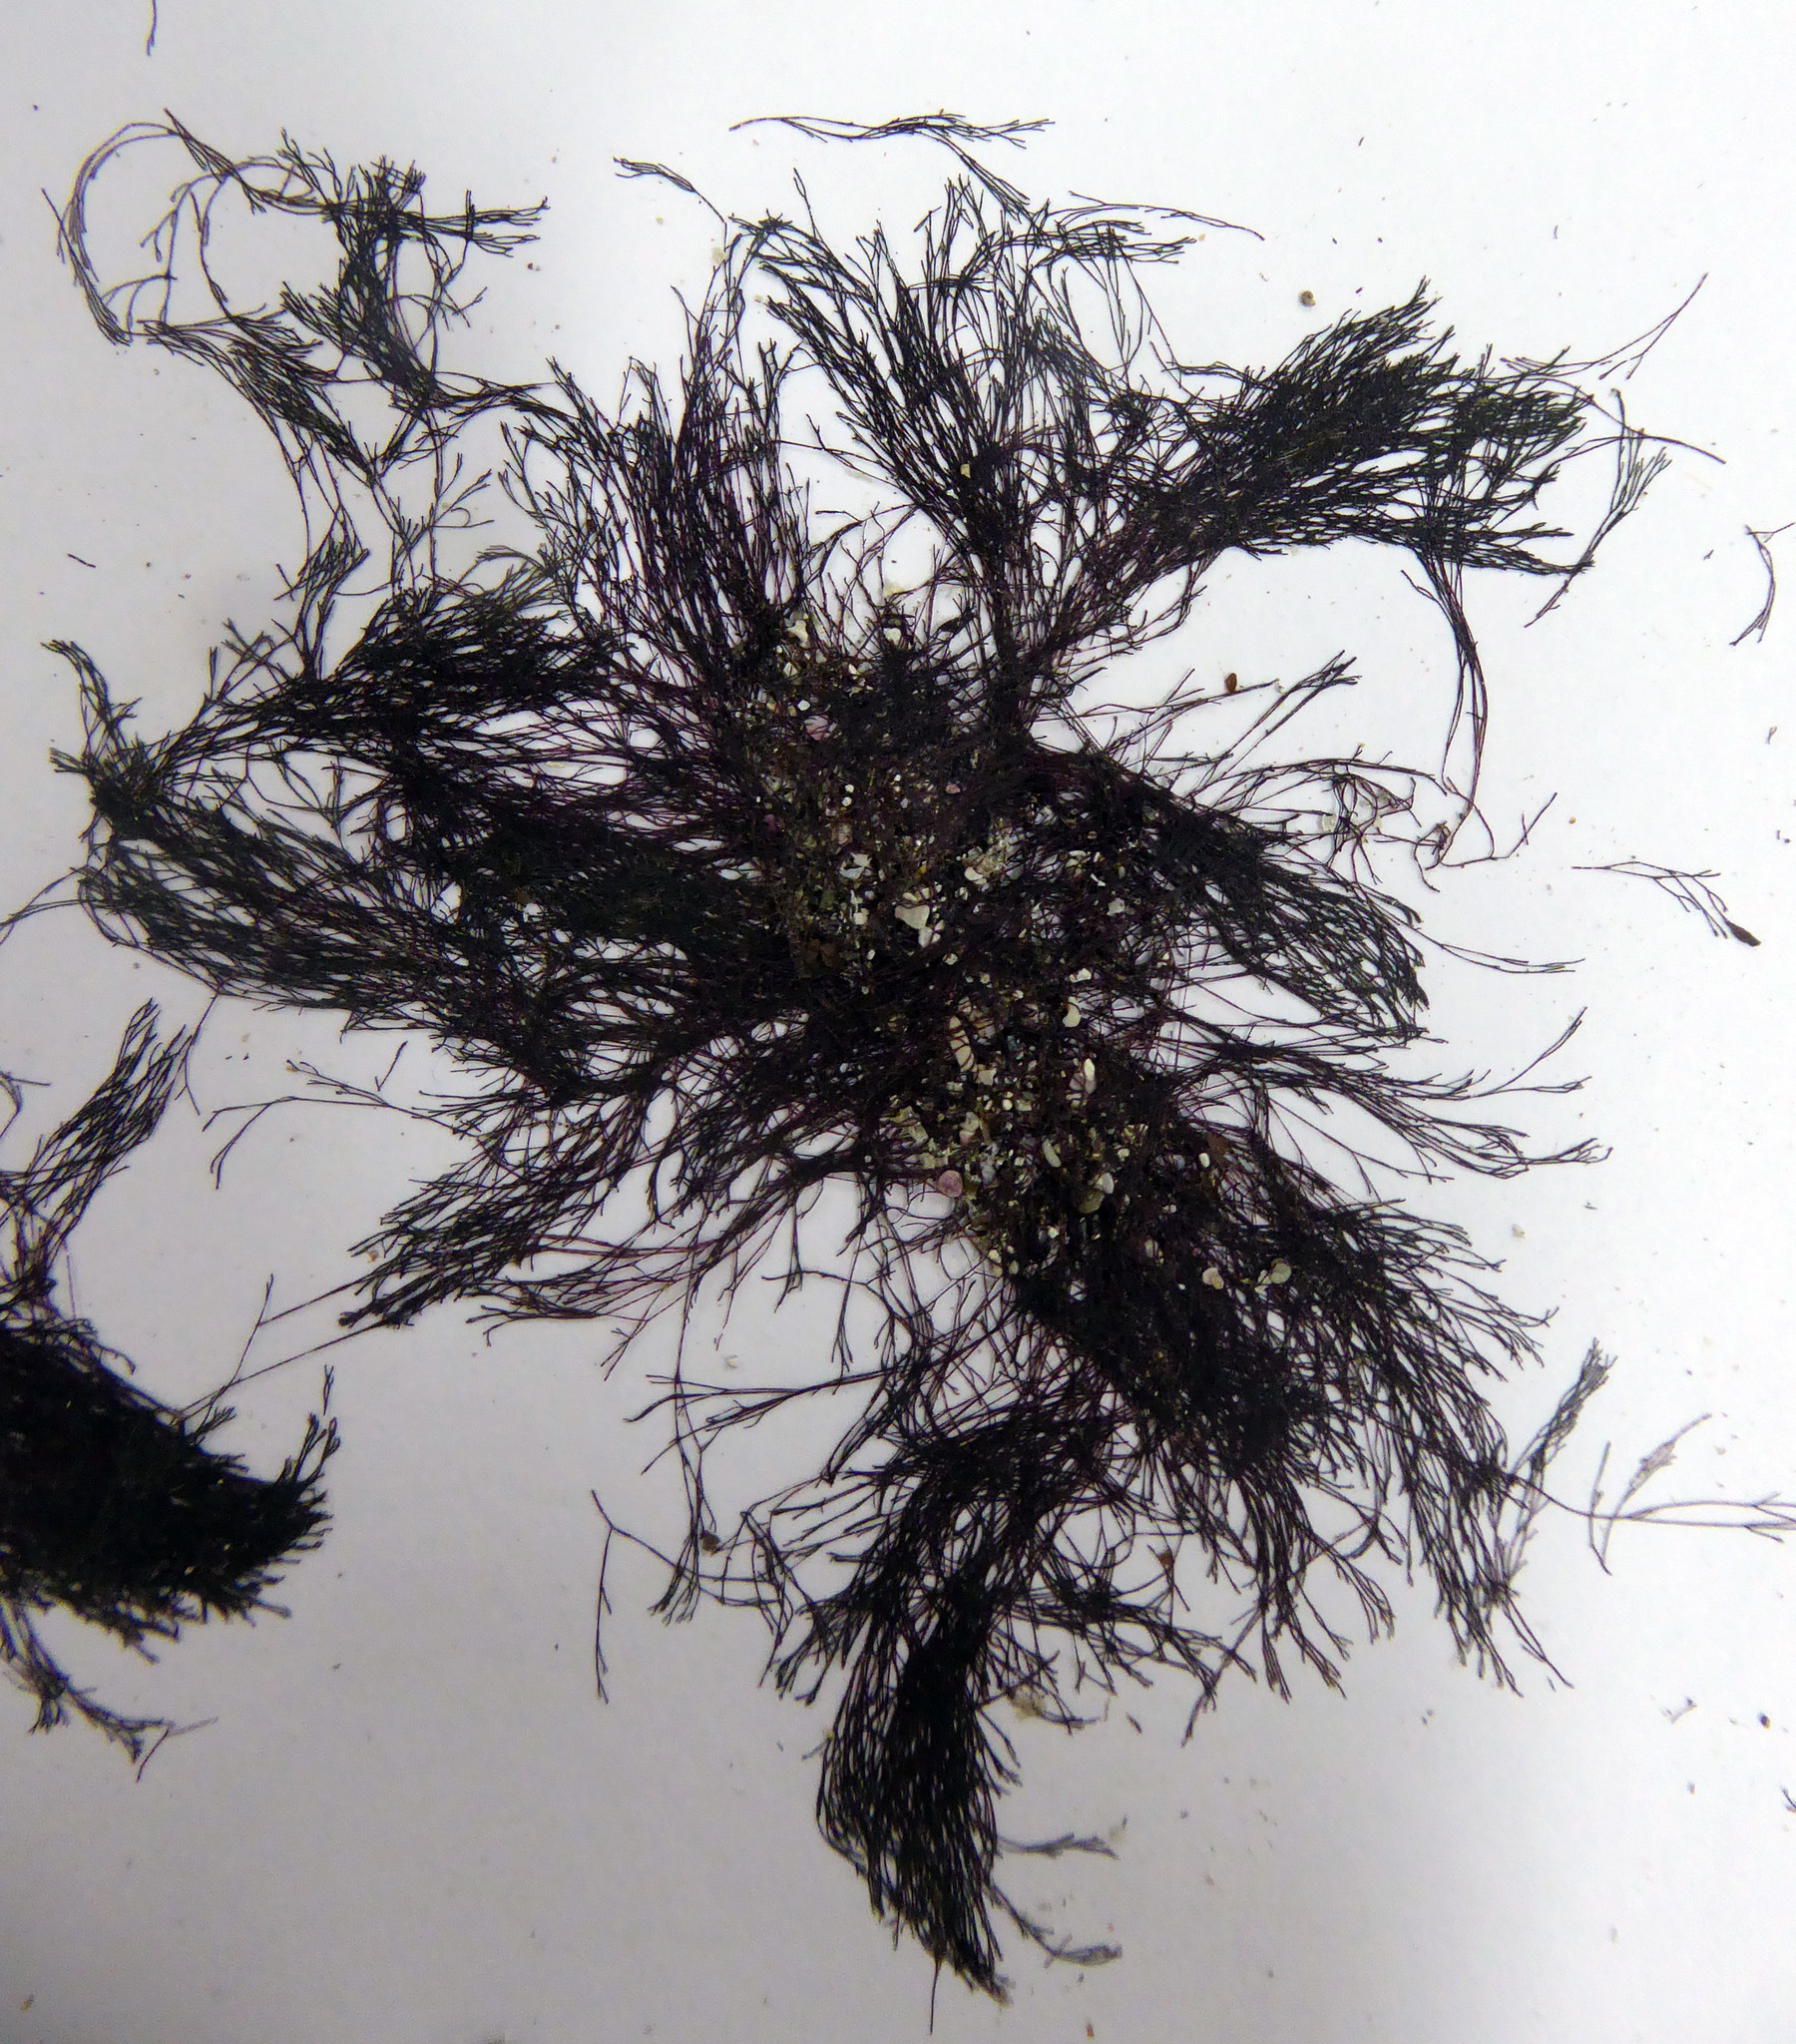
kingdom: Plantae
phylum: Rhodophyta
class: Florideophyceae
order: Ceramiales
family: Ceramiaceae
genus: Centroceras
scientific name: Centroceras clavulatum
